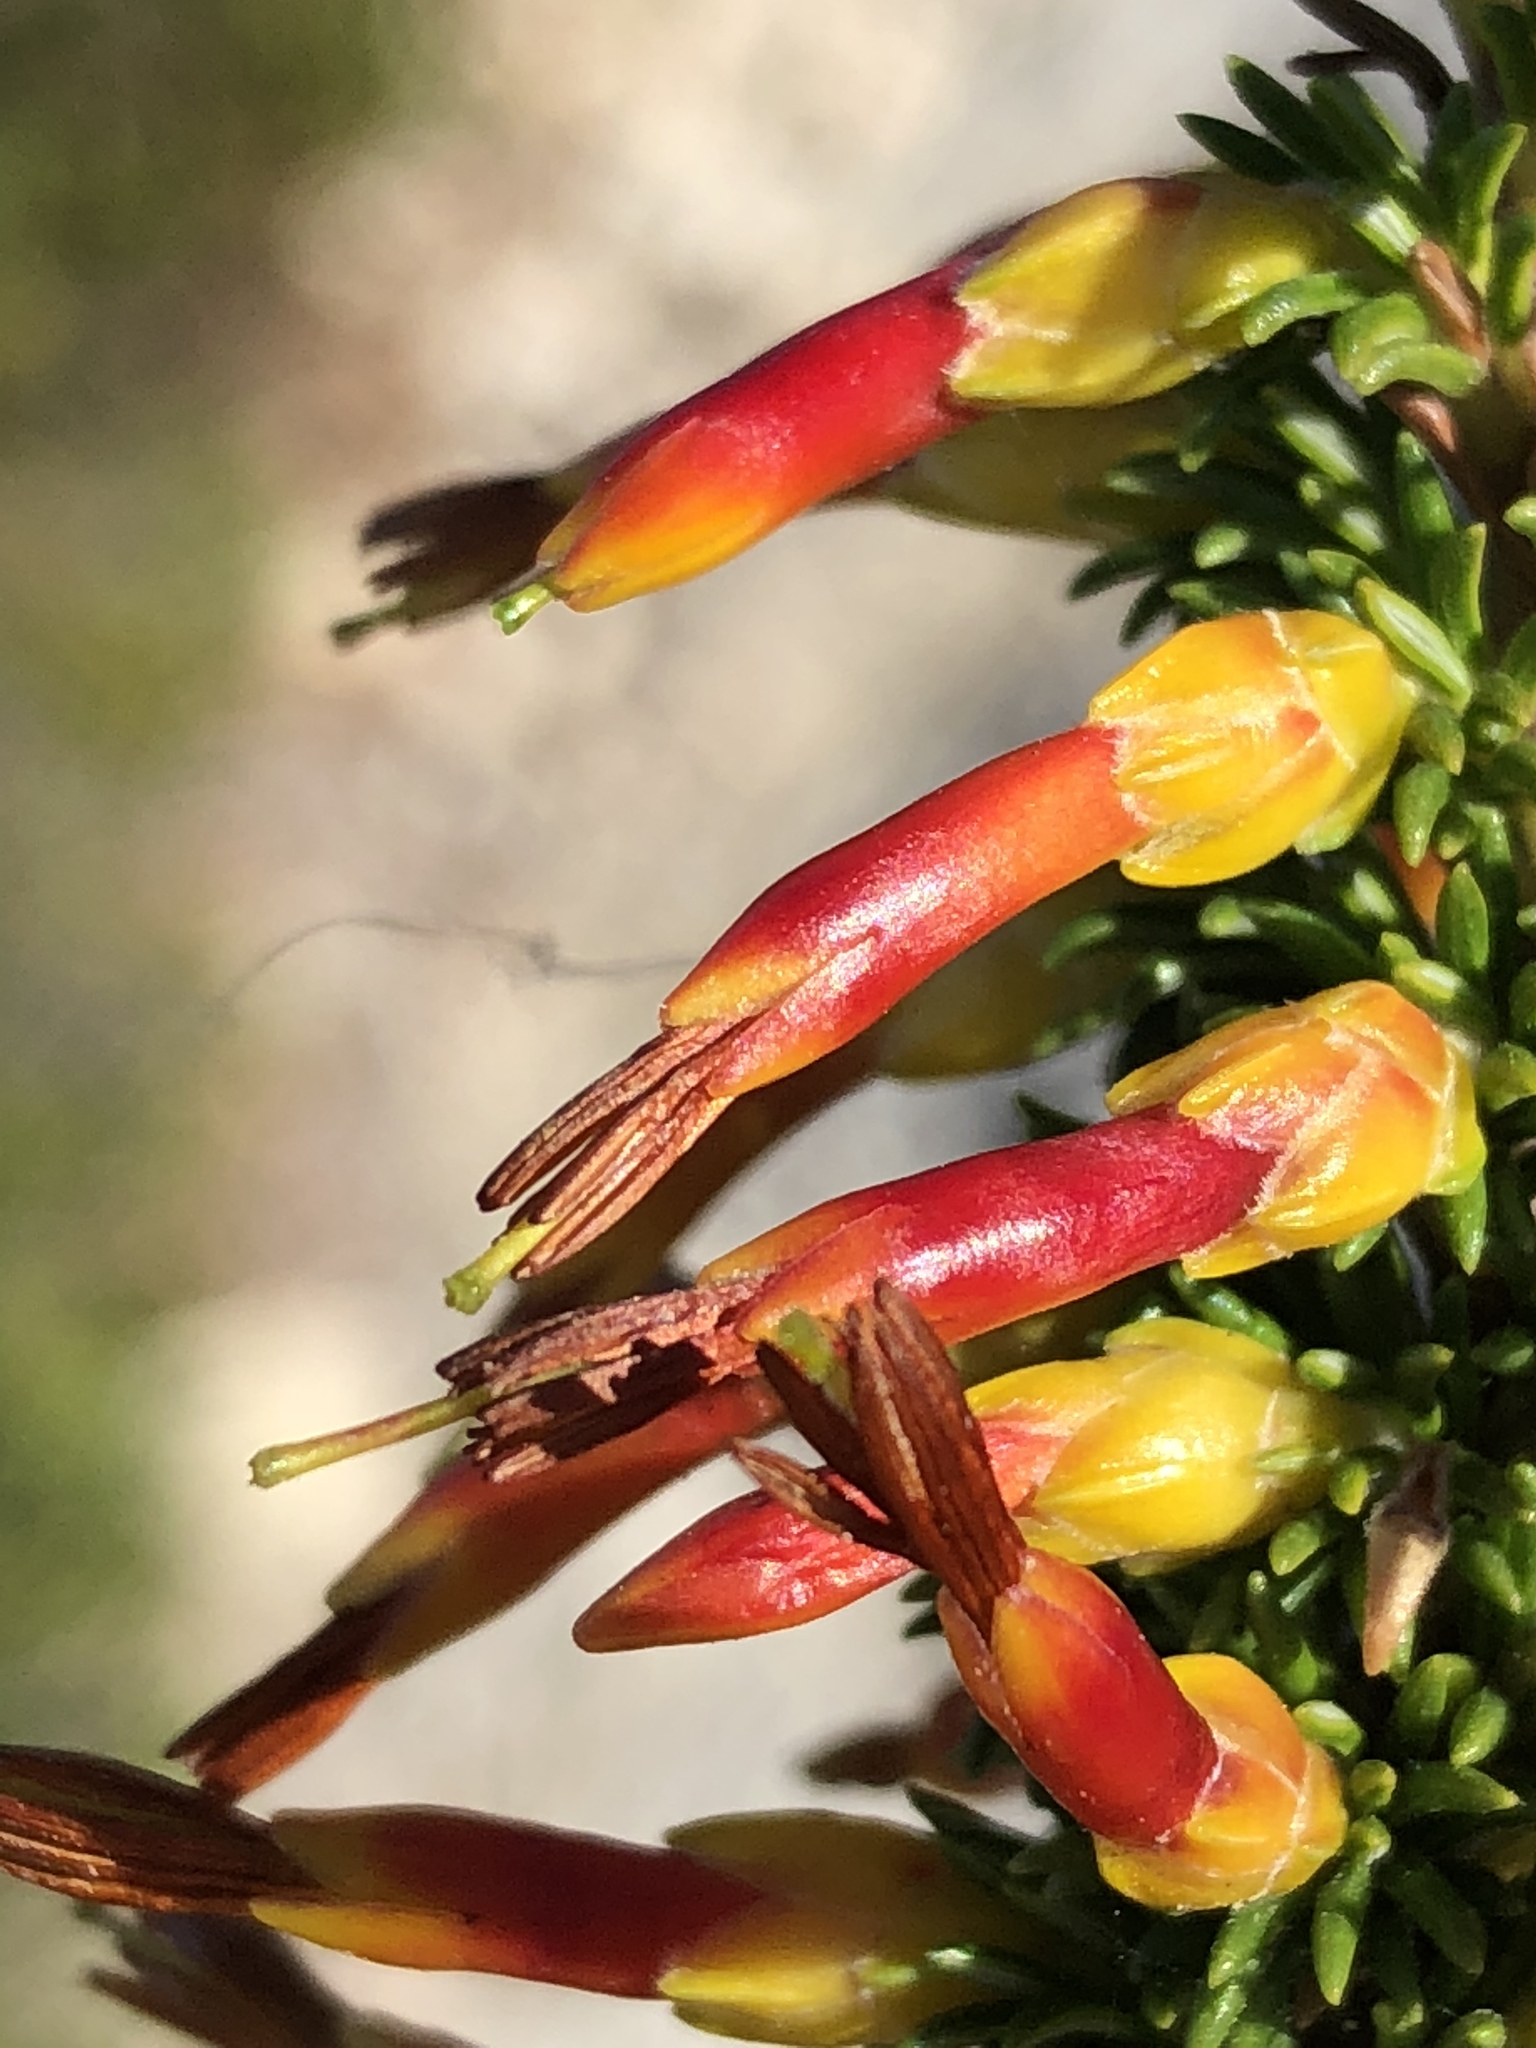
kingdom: Plantae
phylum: Tracheophyta
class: Magnoliopsida
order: Ericales
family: Ericaceae
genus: Erica
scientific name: Erica coccinea
